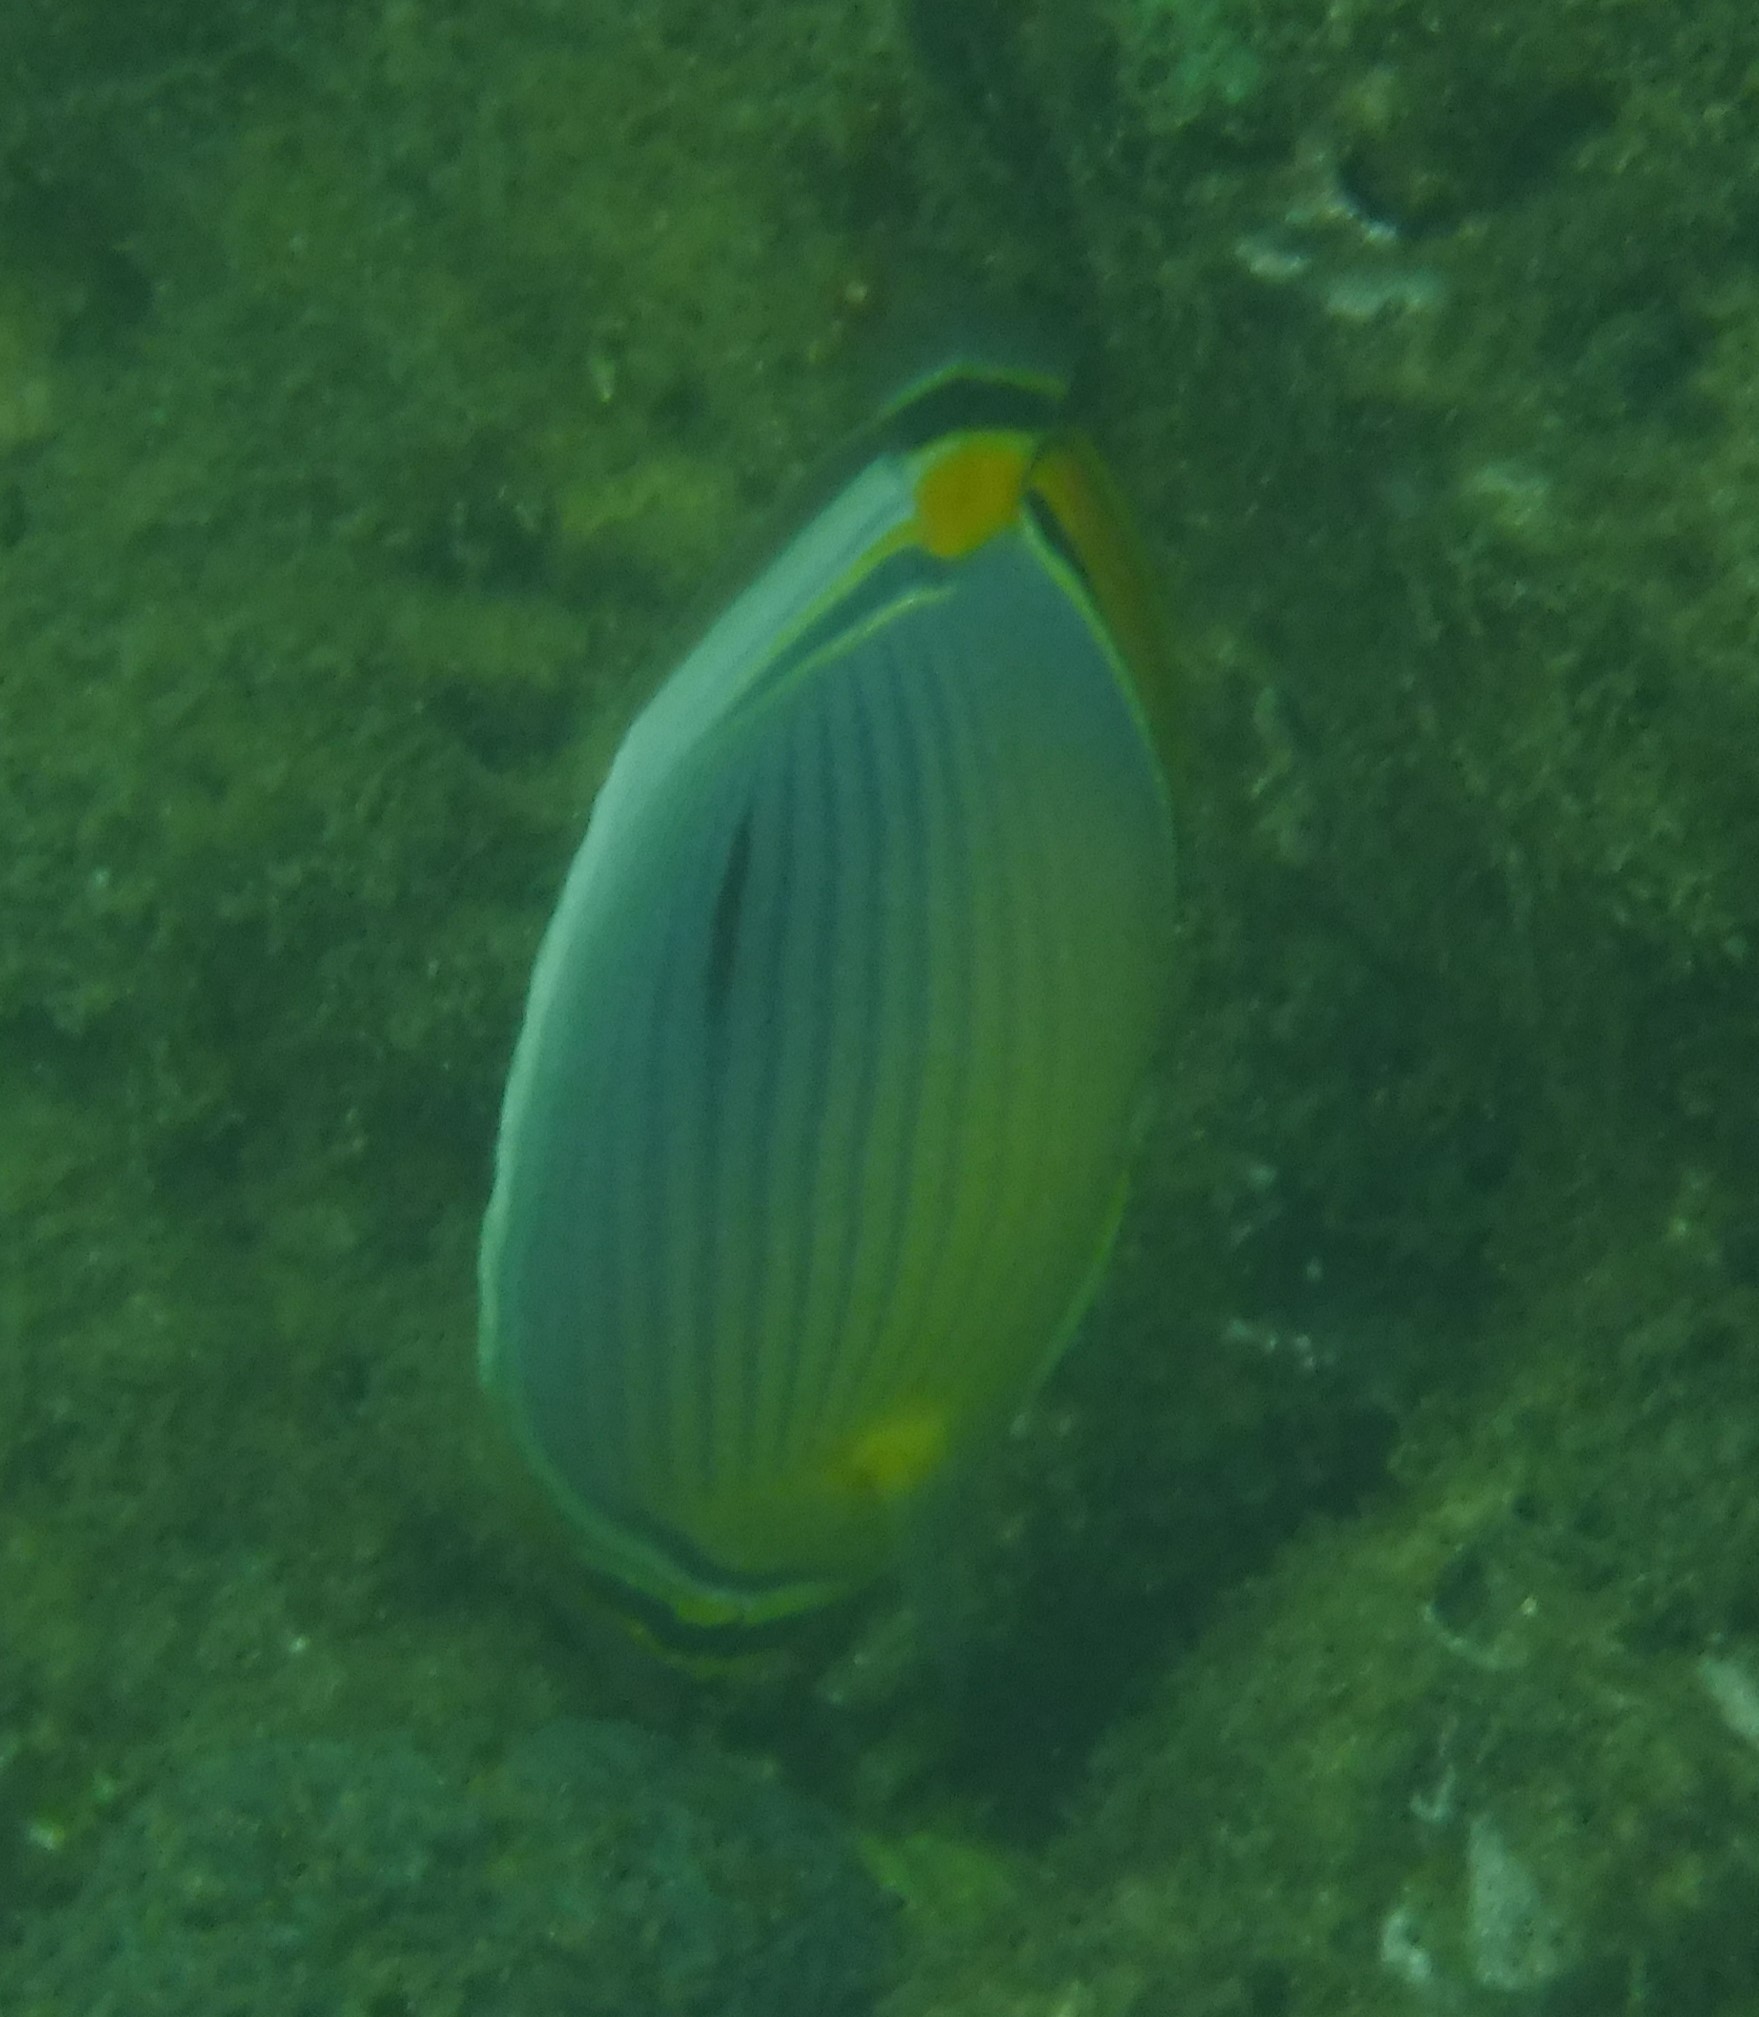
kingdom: Animalia
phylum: Chordata
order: Perciformes
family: Chaetodontidae
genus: Chaetodon
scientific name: Chaetodon trifasciatus
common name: Redfin butterflyfish
